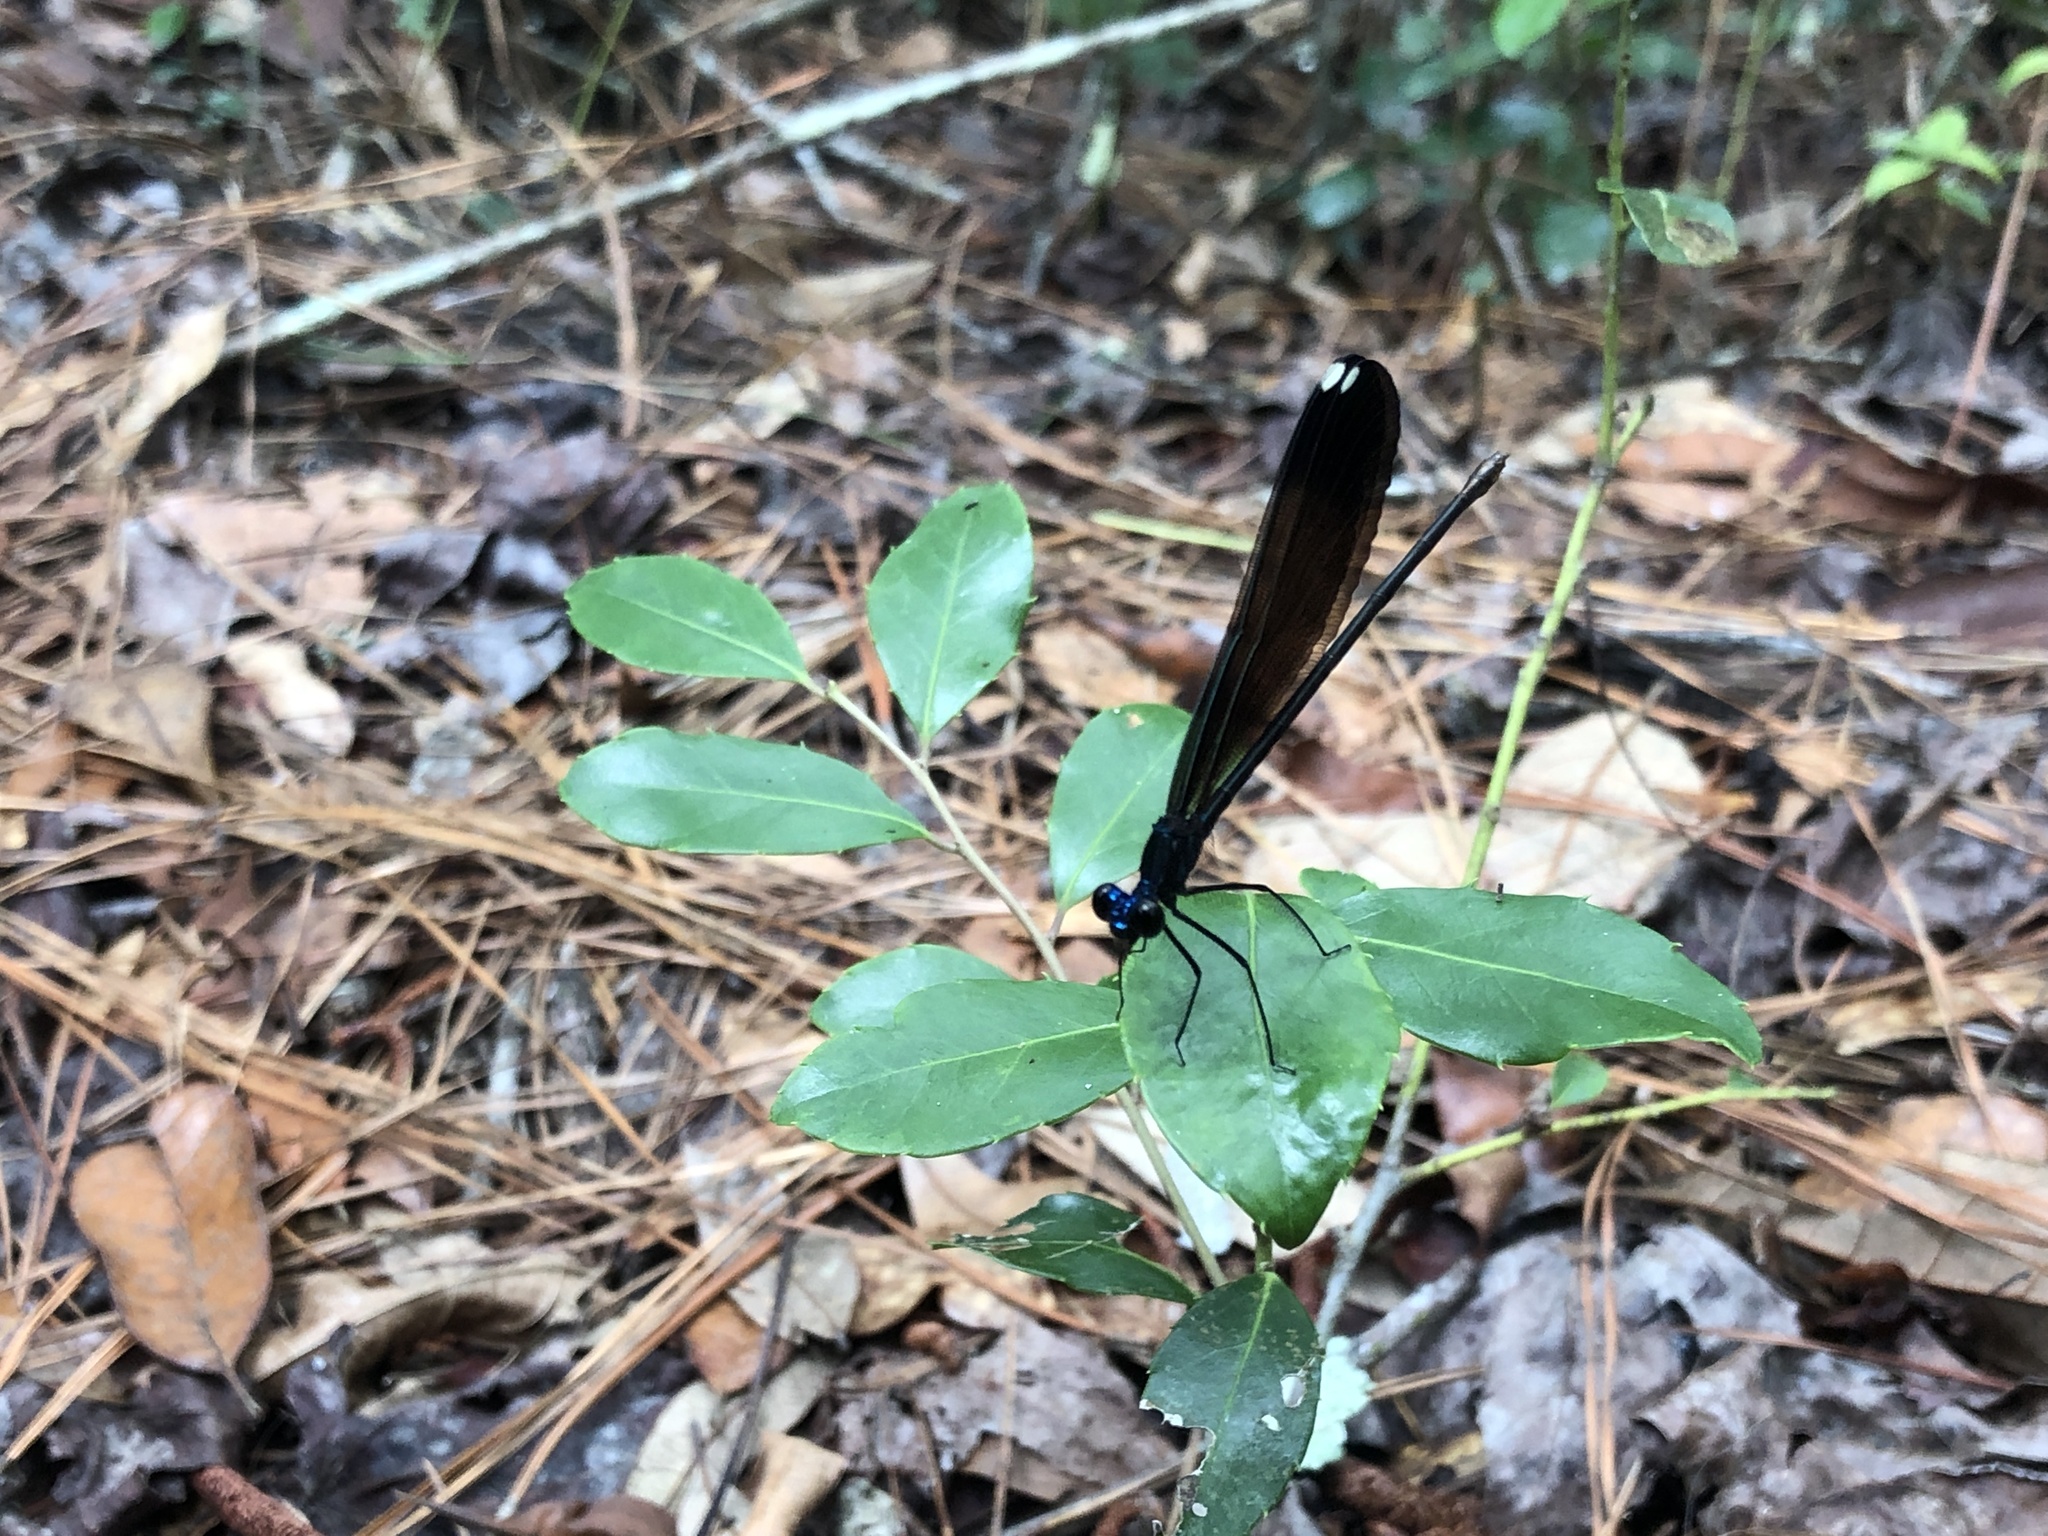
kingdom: Animalia
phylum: Arthropoda
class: Insecta
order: Odonata
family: Calopterygidae
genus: Calopteryx
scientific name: Calopteryx maculata
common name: Ebony jewelwing
